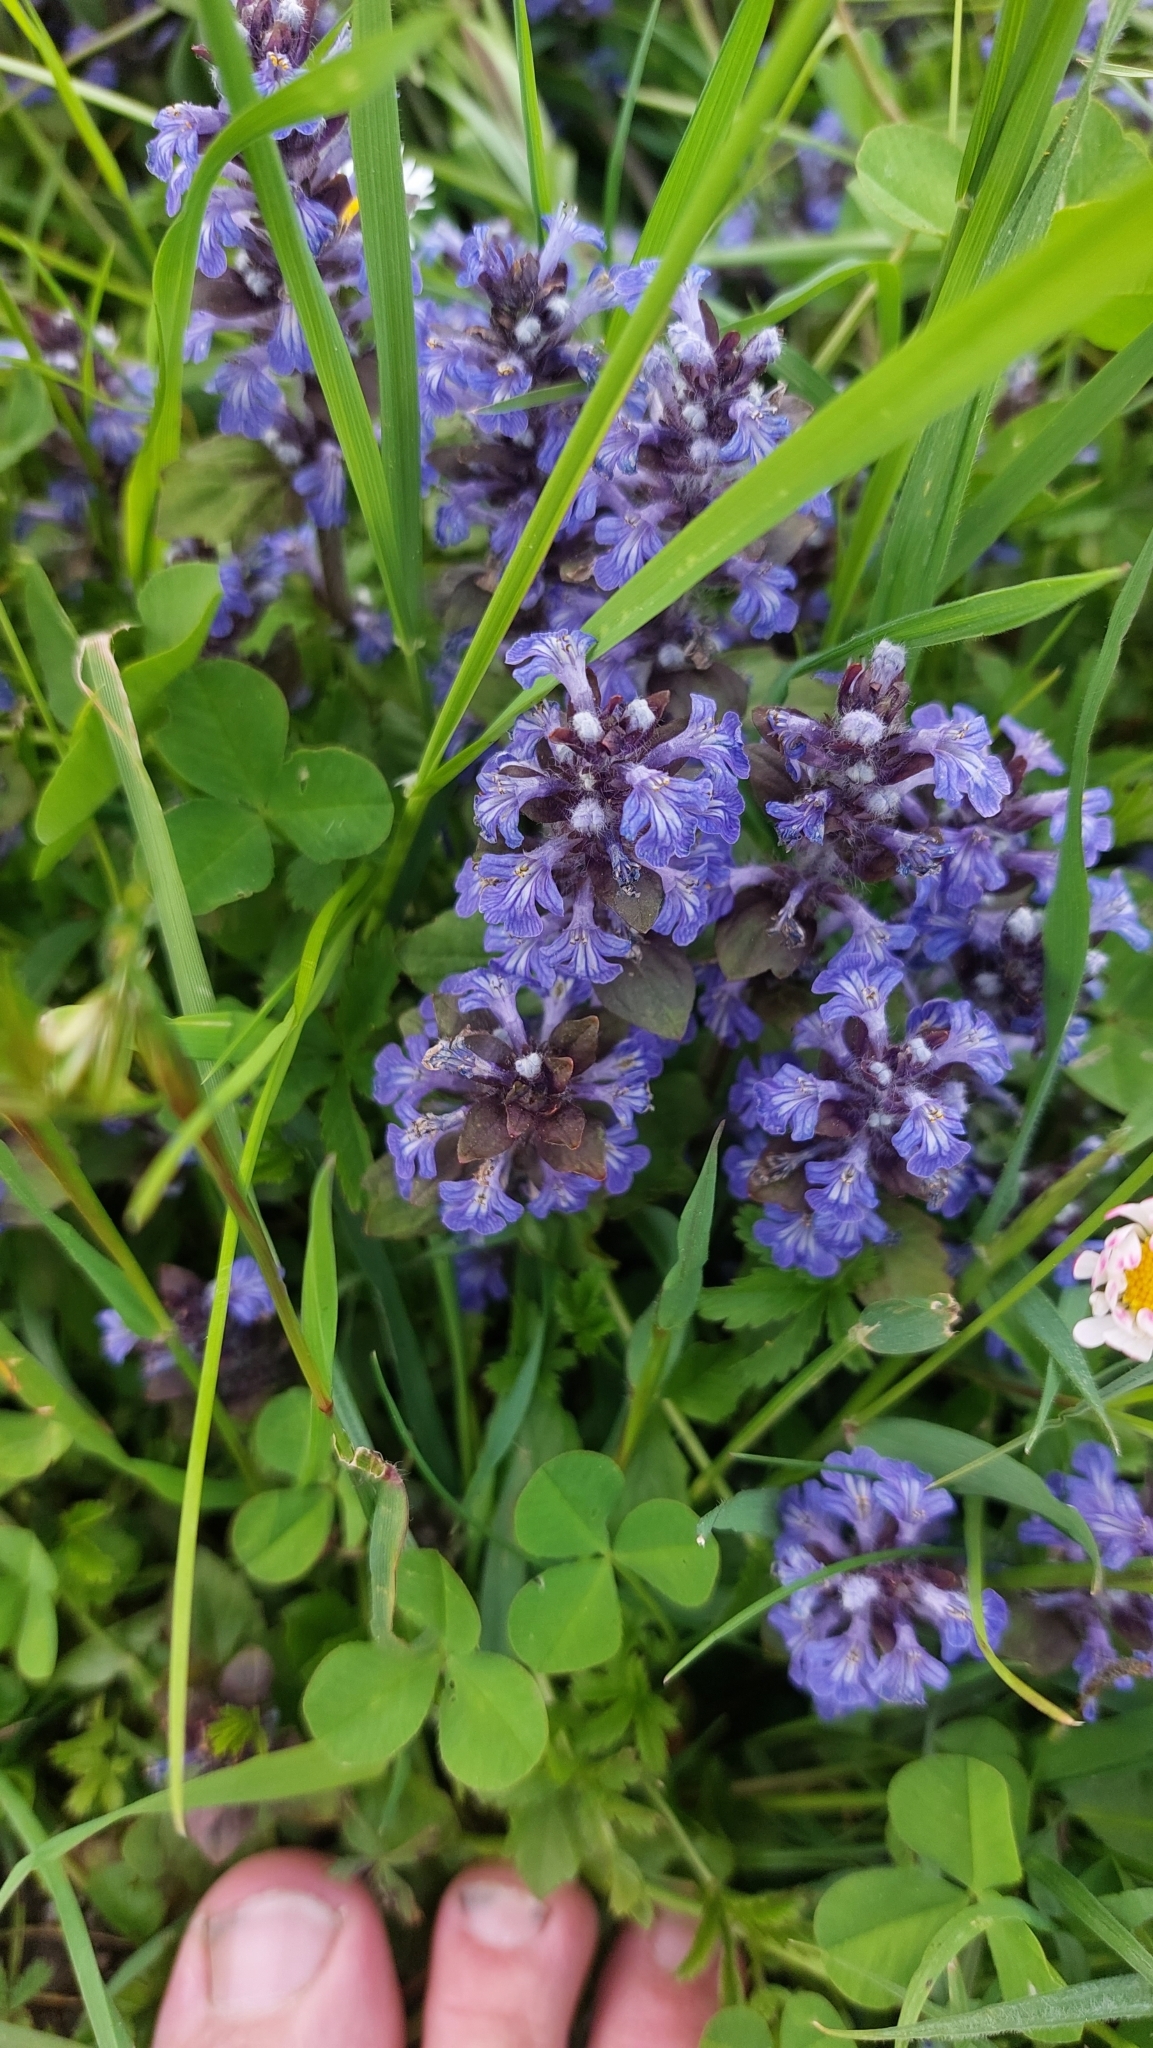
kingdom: Plantae
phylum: Tracheophyta
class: Magnoliopsida
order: Lamiales
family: Lamiaceae
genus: Ajuga
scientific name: Ajuga reptans
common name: Bugle
